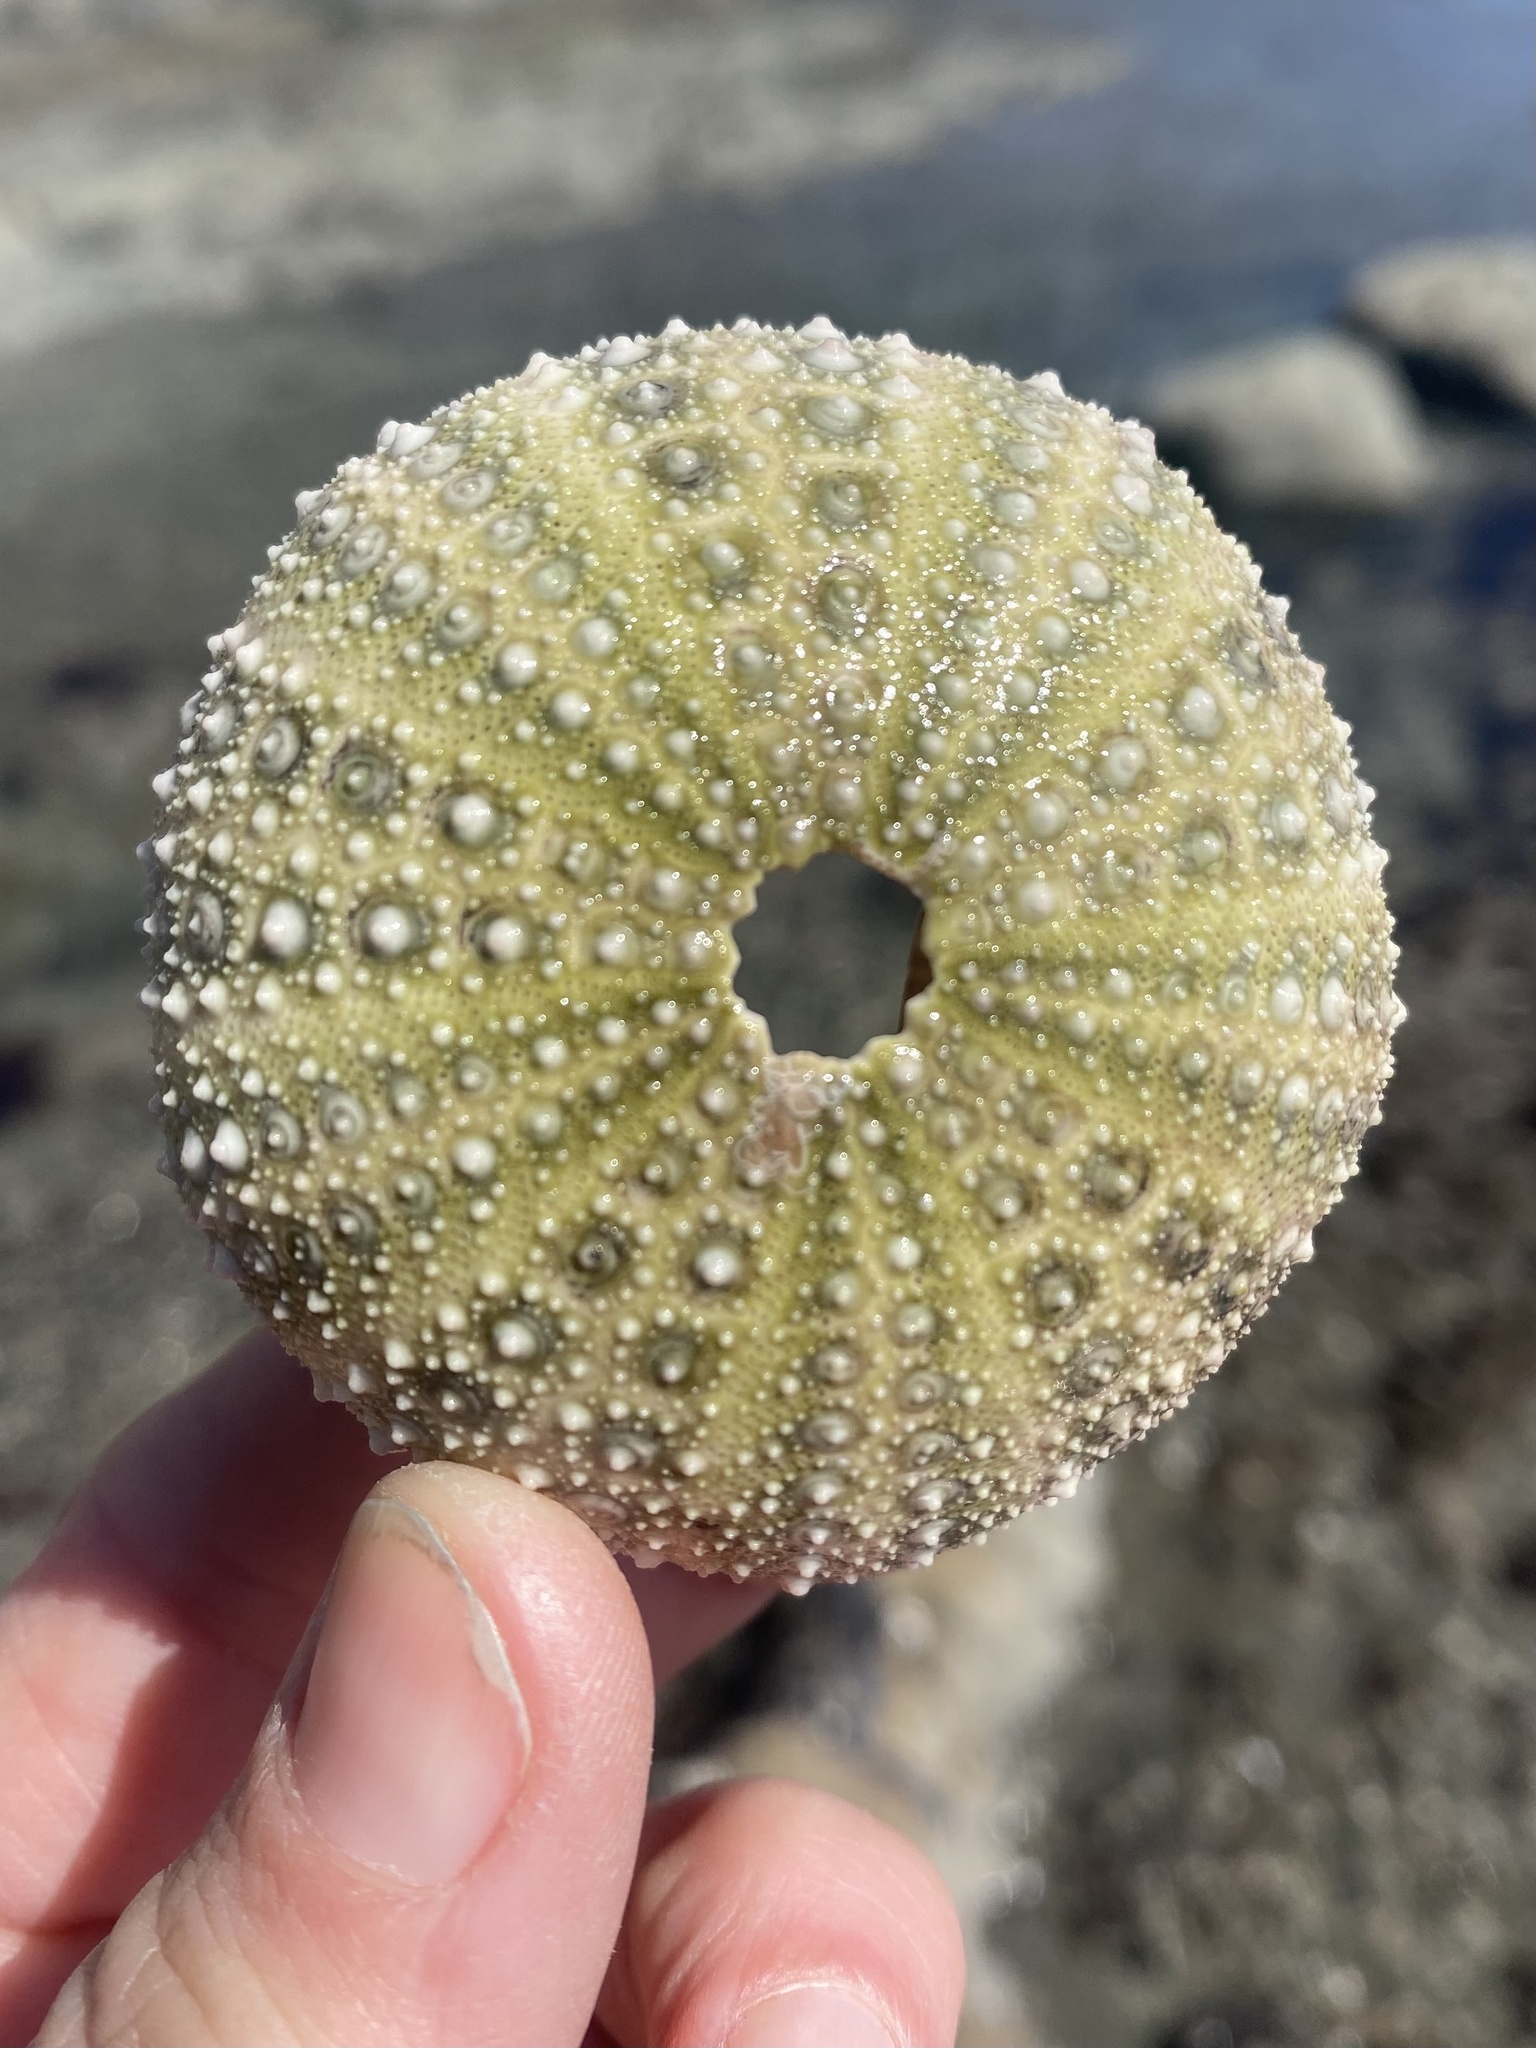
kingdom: Animalia
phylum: Echinodermata
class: Echinoidea
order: Camarodonta
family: Strongylocentrotidae
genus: Strongylocentrotus
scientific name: Strongylocentrotus purpuratus
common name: Purple sea urchin
